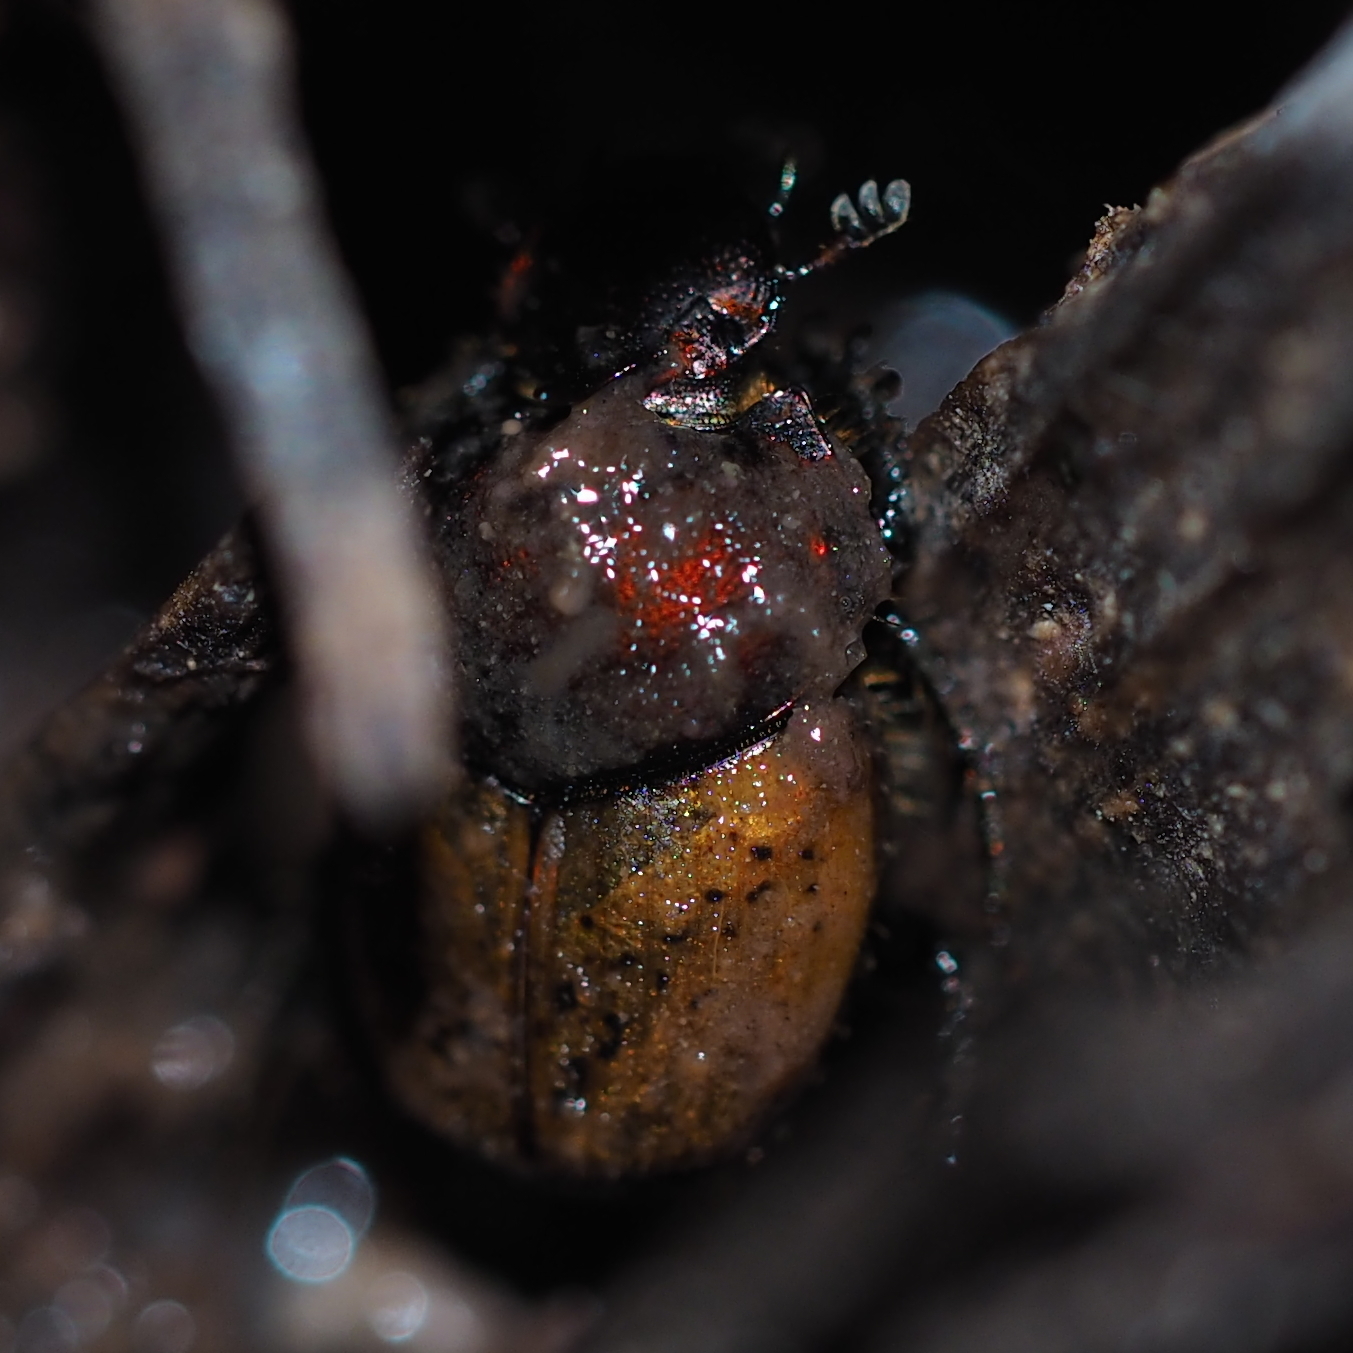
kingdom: Animalia
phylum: Arthropoda
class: Insecta
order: Coleoptera
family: Scarabaeidae
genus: Onthophagus
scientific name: Onthophagus coenobita
